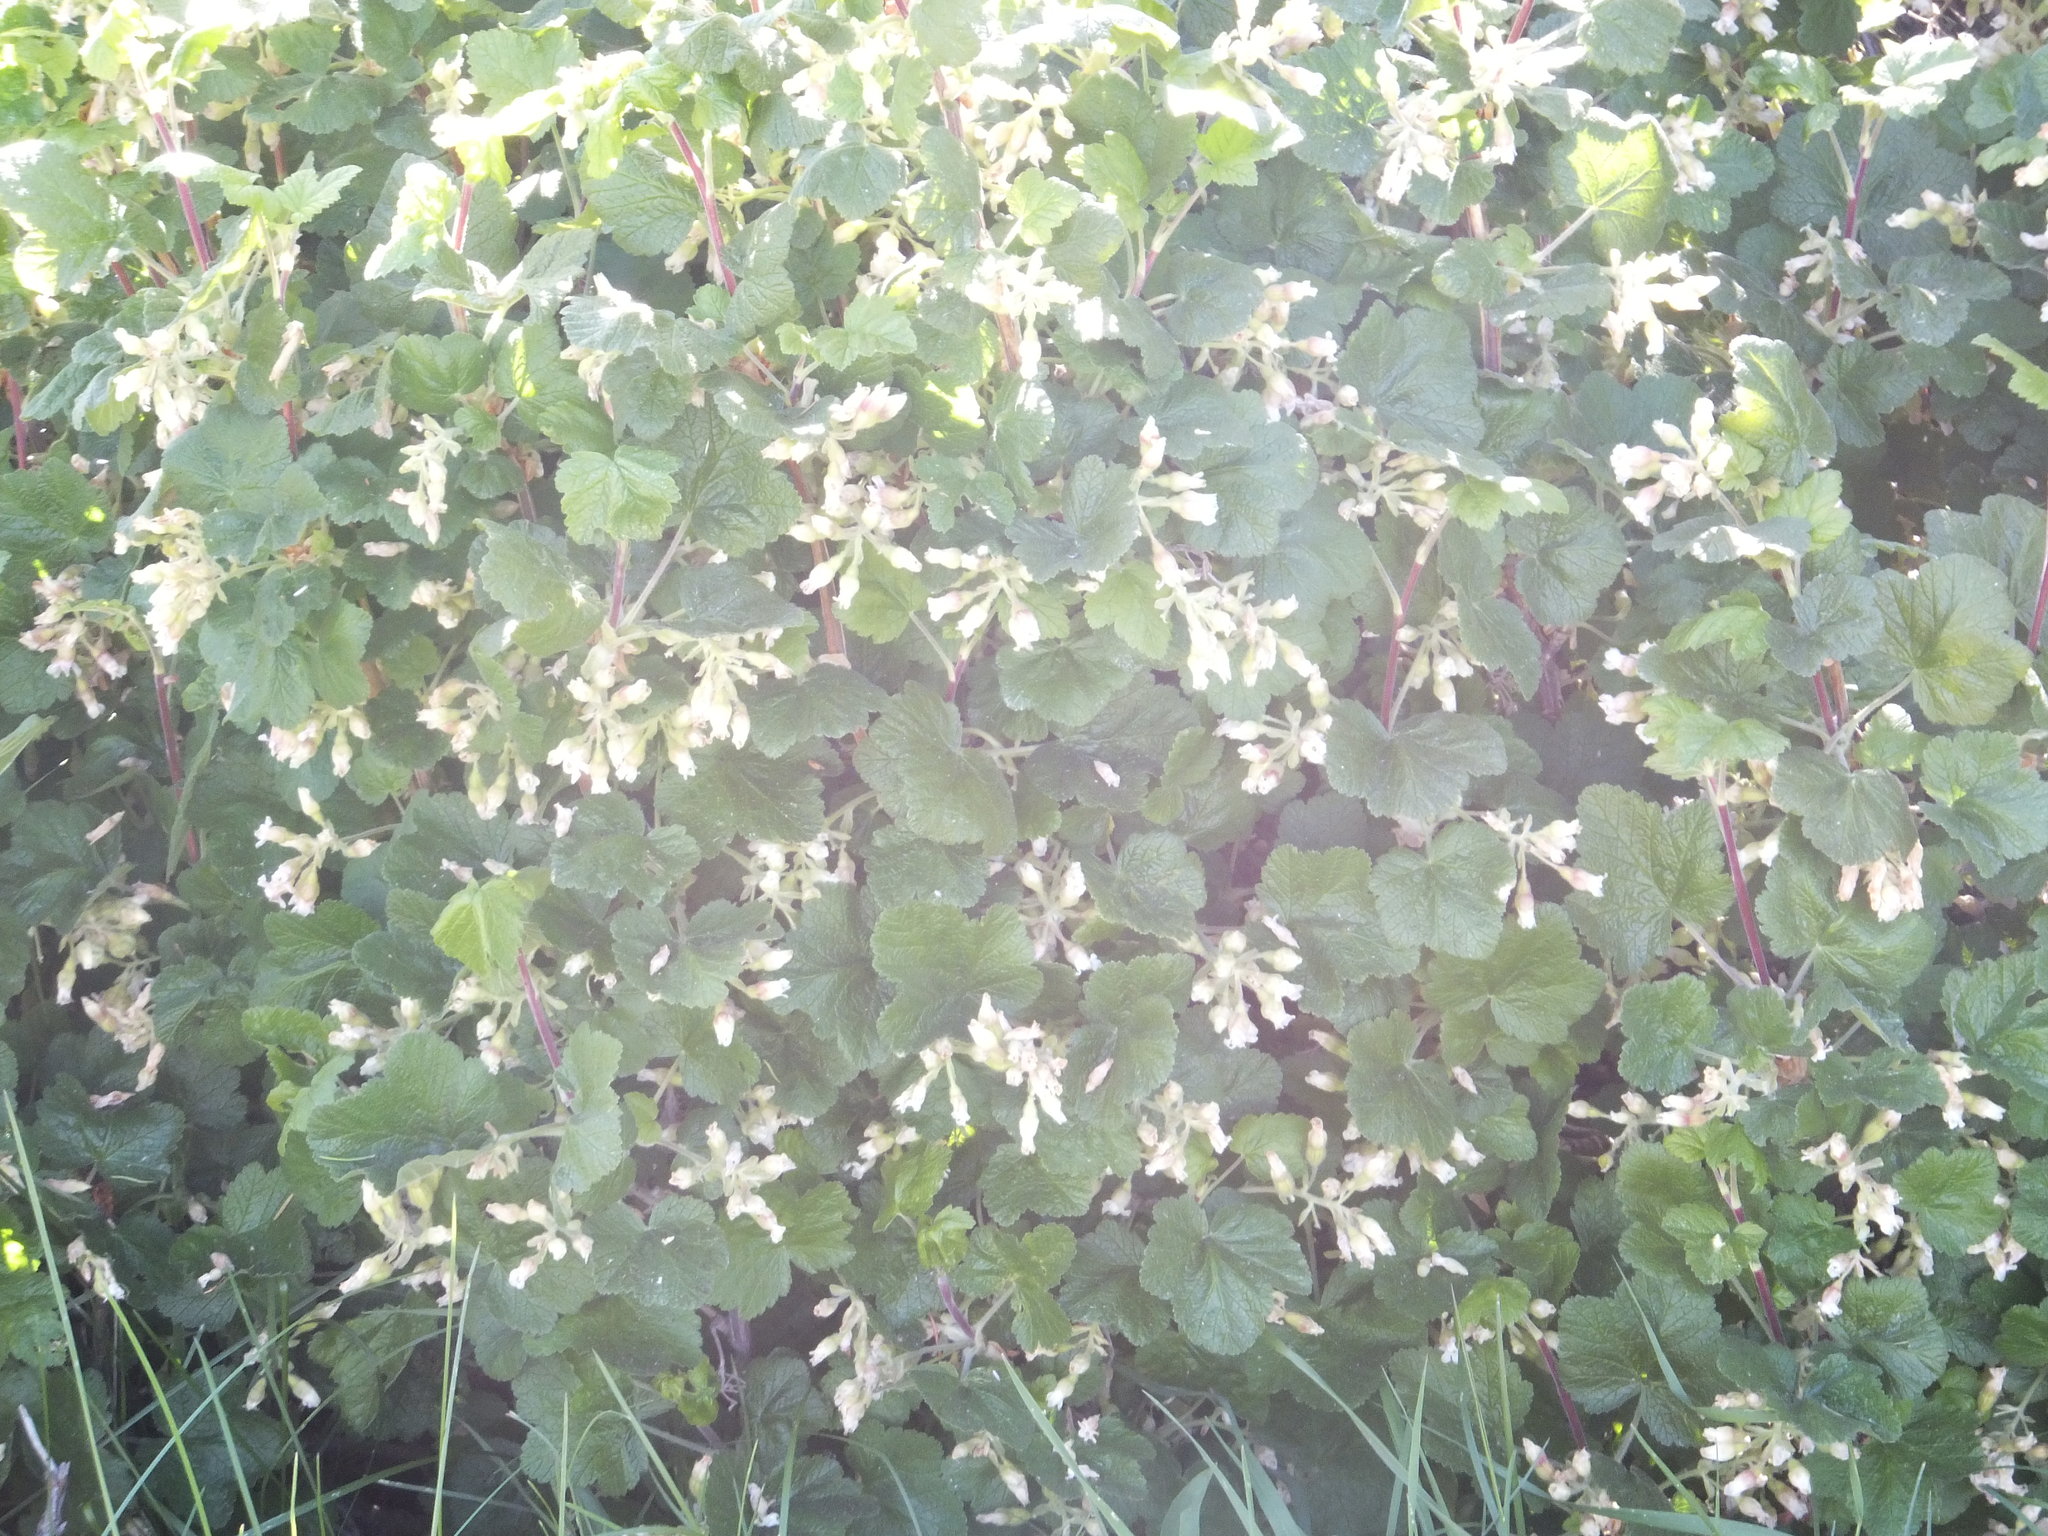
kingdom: Plantae
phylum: Tracheophyta
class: Magnoliopsida
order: Saxifragales
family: Grossulariaceae
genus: Ribes
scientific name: Ribes viscosissimum
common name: Sticky currant
